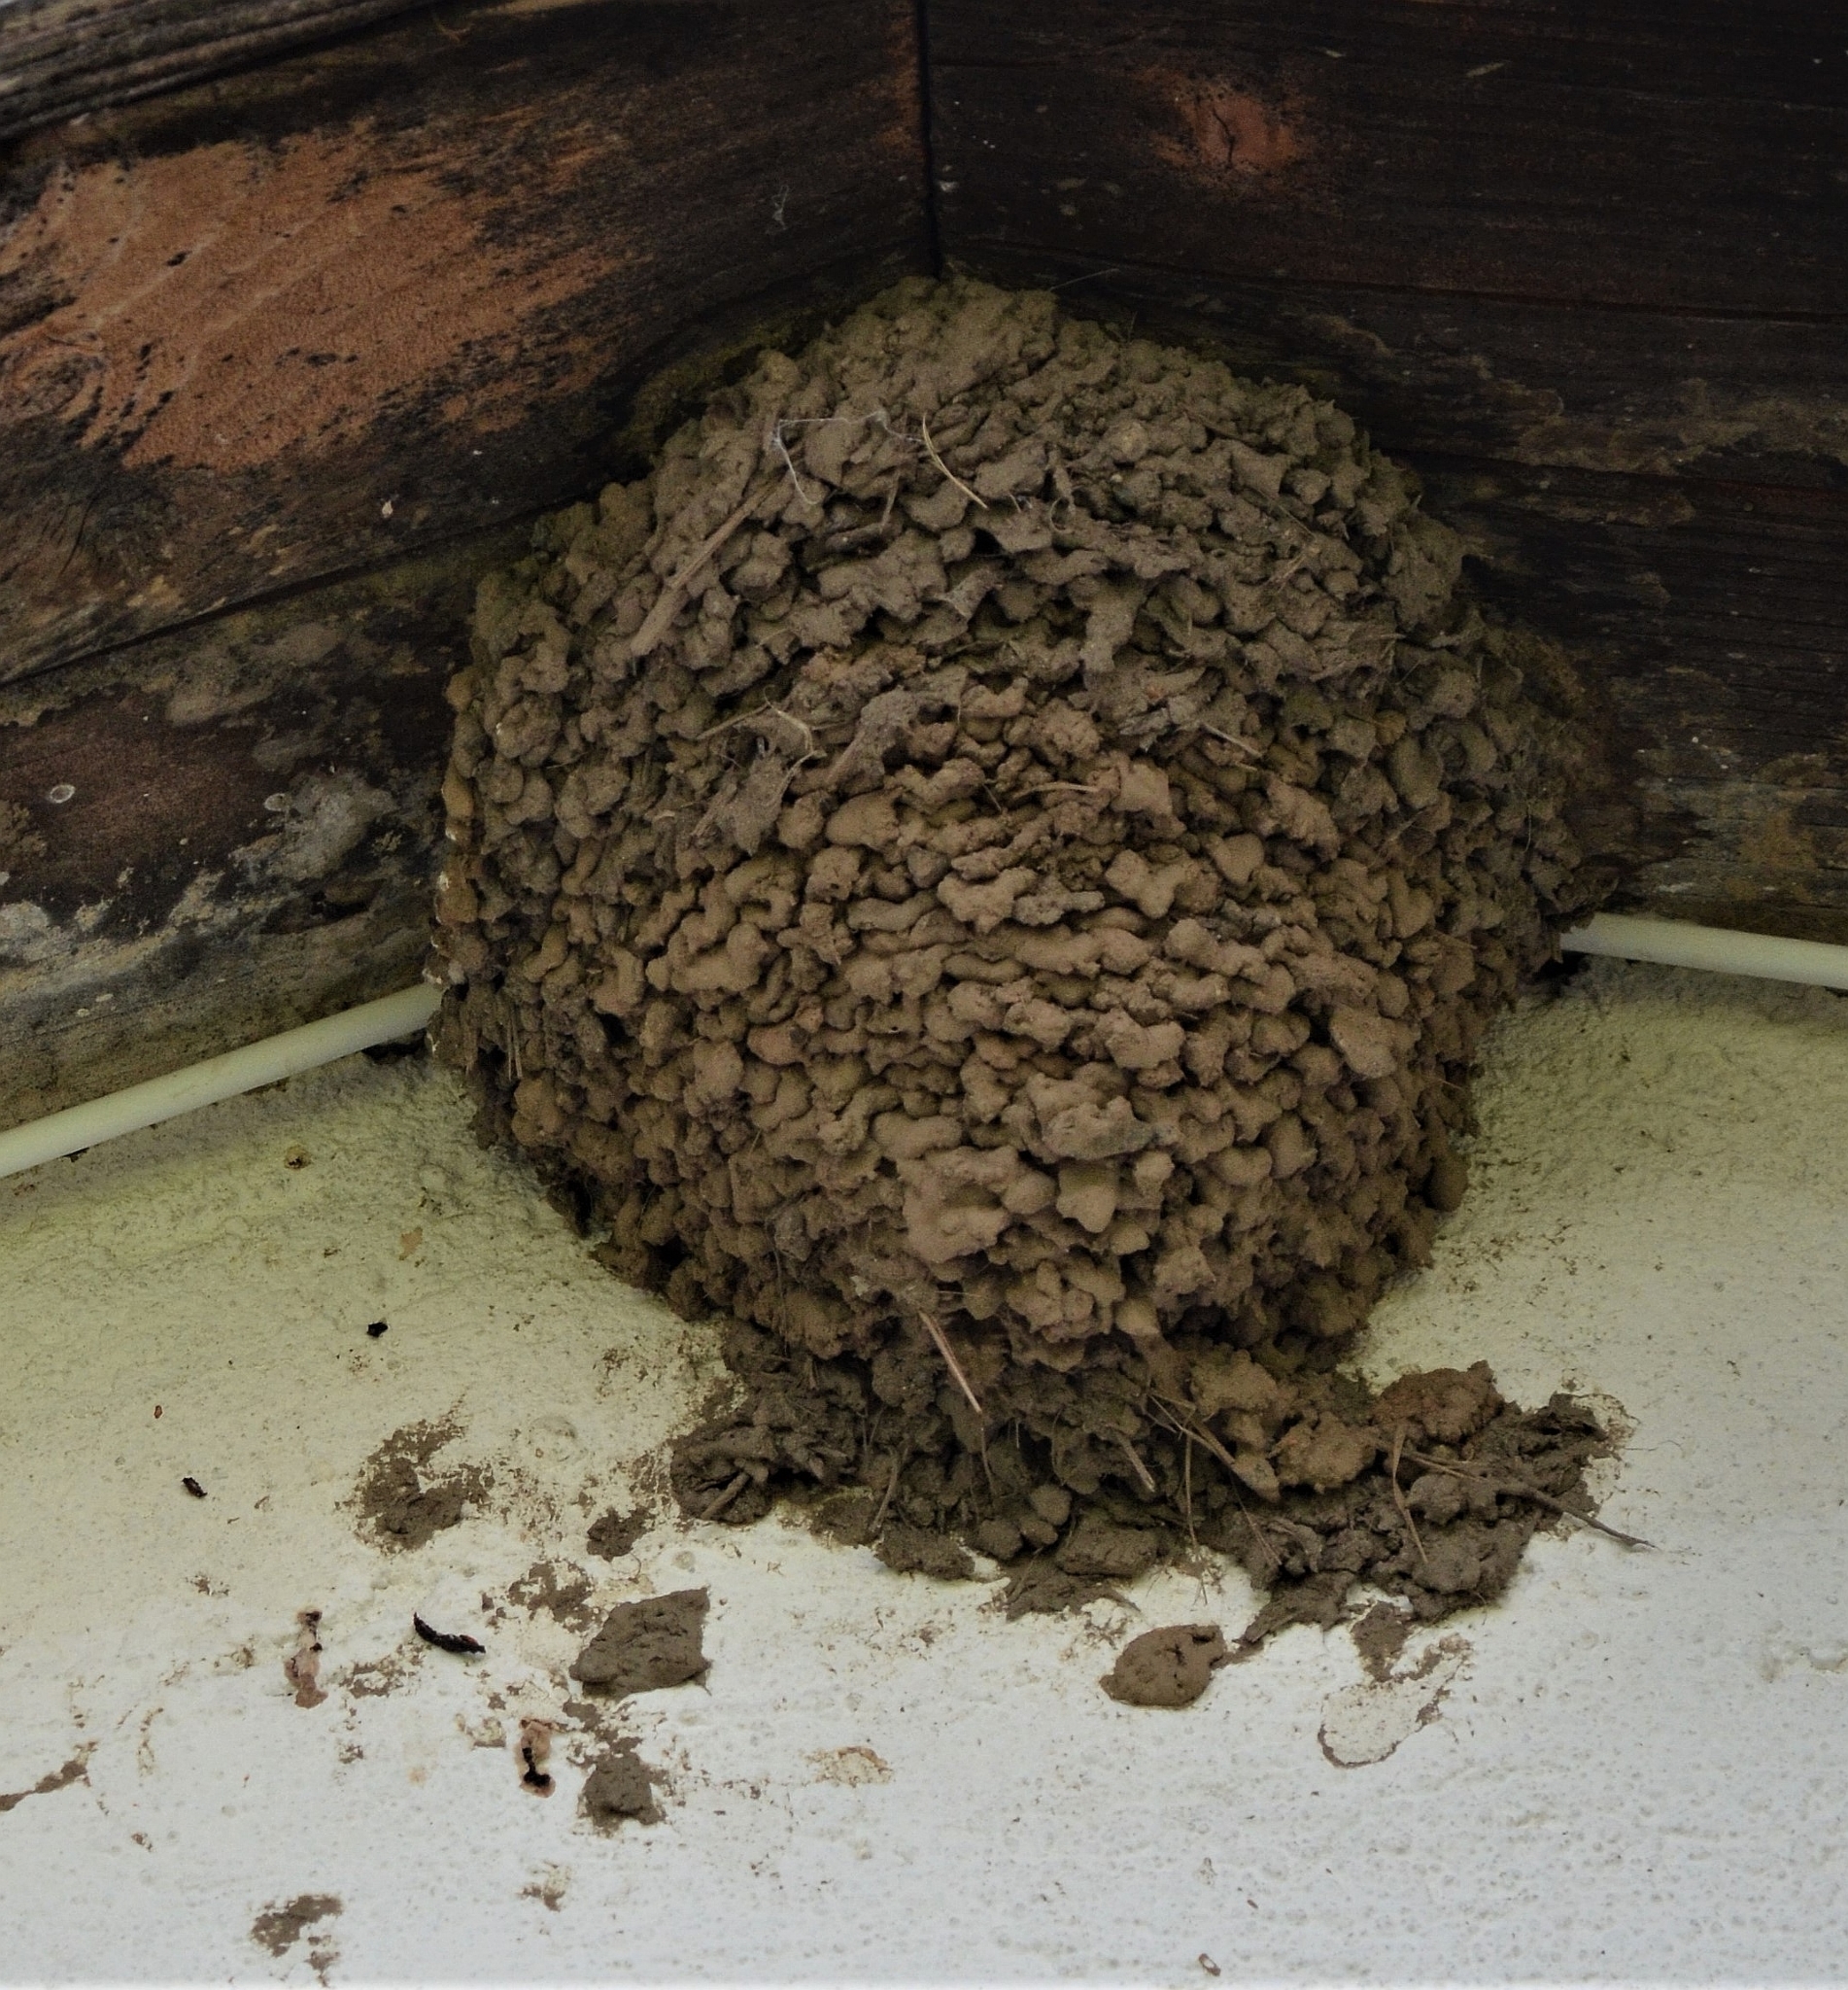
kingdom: Animalia
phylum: Chordata
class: Aves
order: Passeriformes
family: Hirundinidae
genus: Delichon
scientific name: Delichon urbicum
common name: Common house martin
